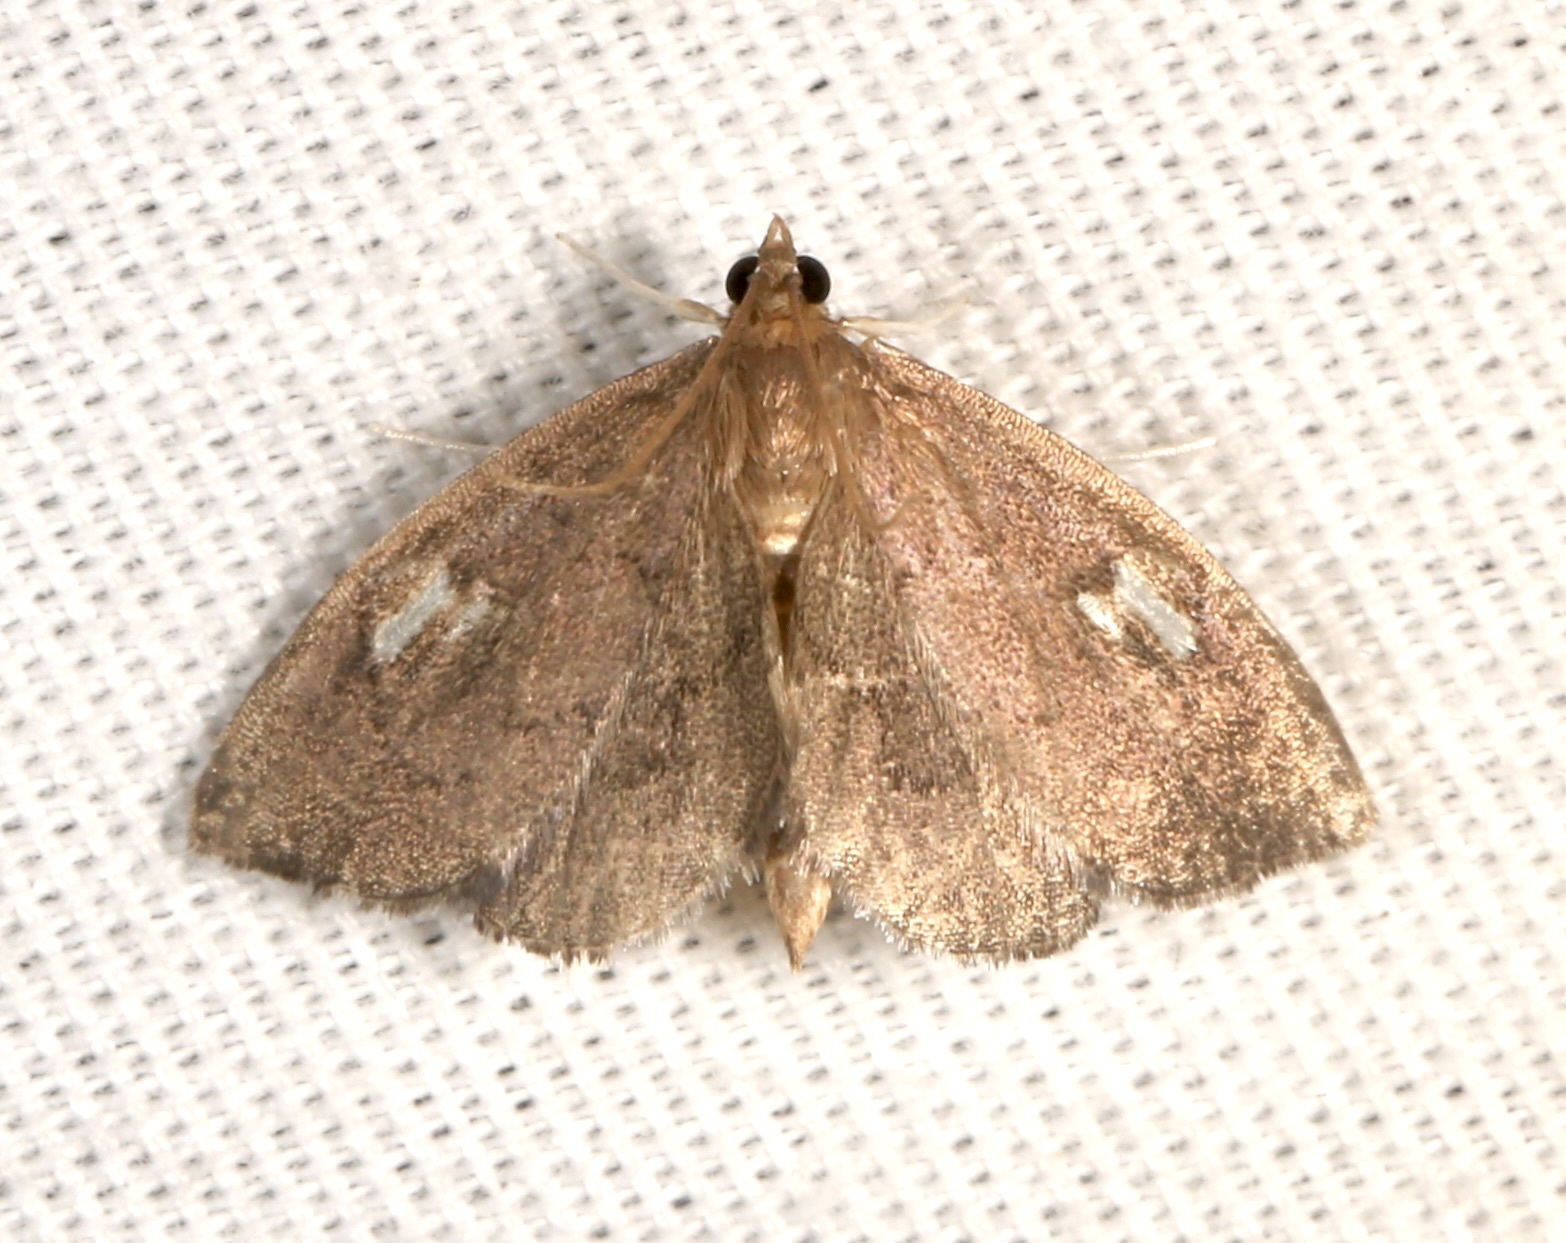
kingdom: Animalia
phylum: Arthropoda
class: Insecta
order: Lepidoptera
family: Crambidae
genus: Perispasta
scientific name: Perispasta caeculalis
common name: Titian peale's moth
